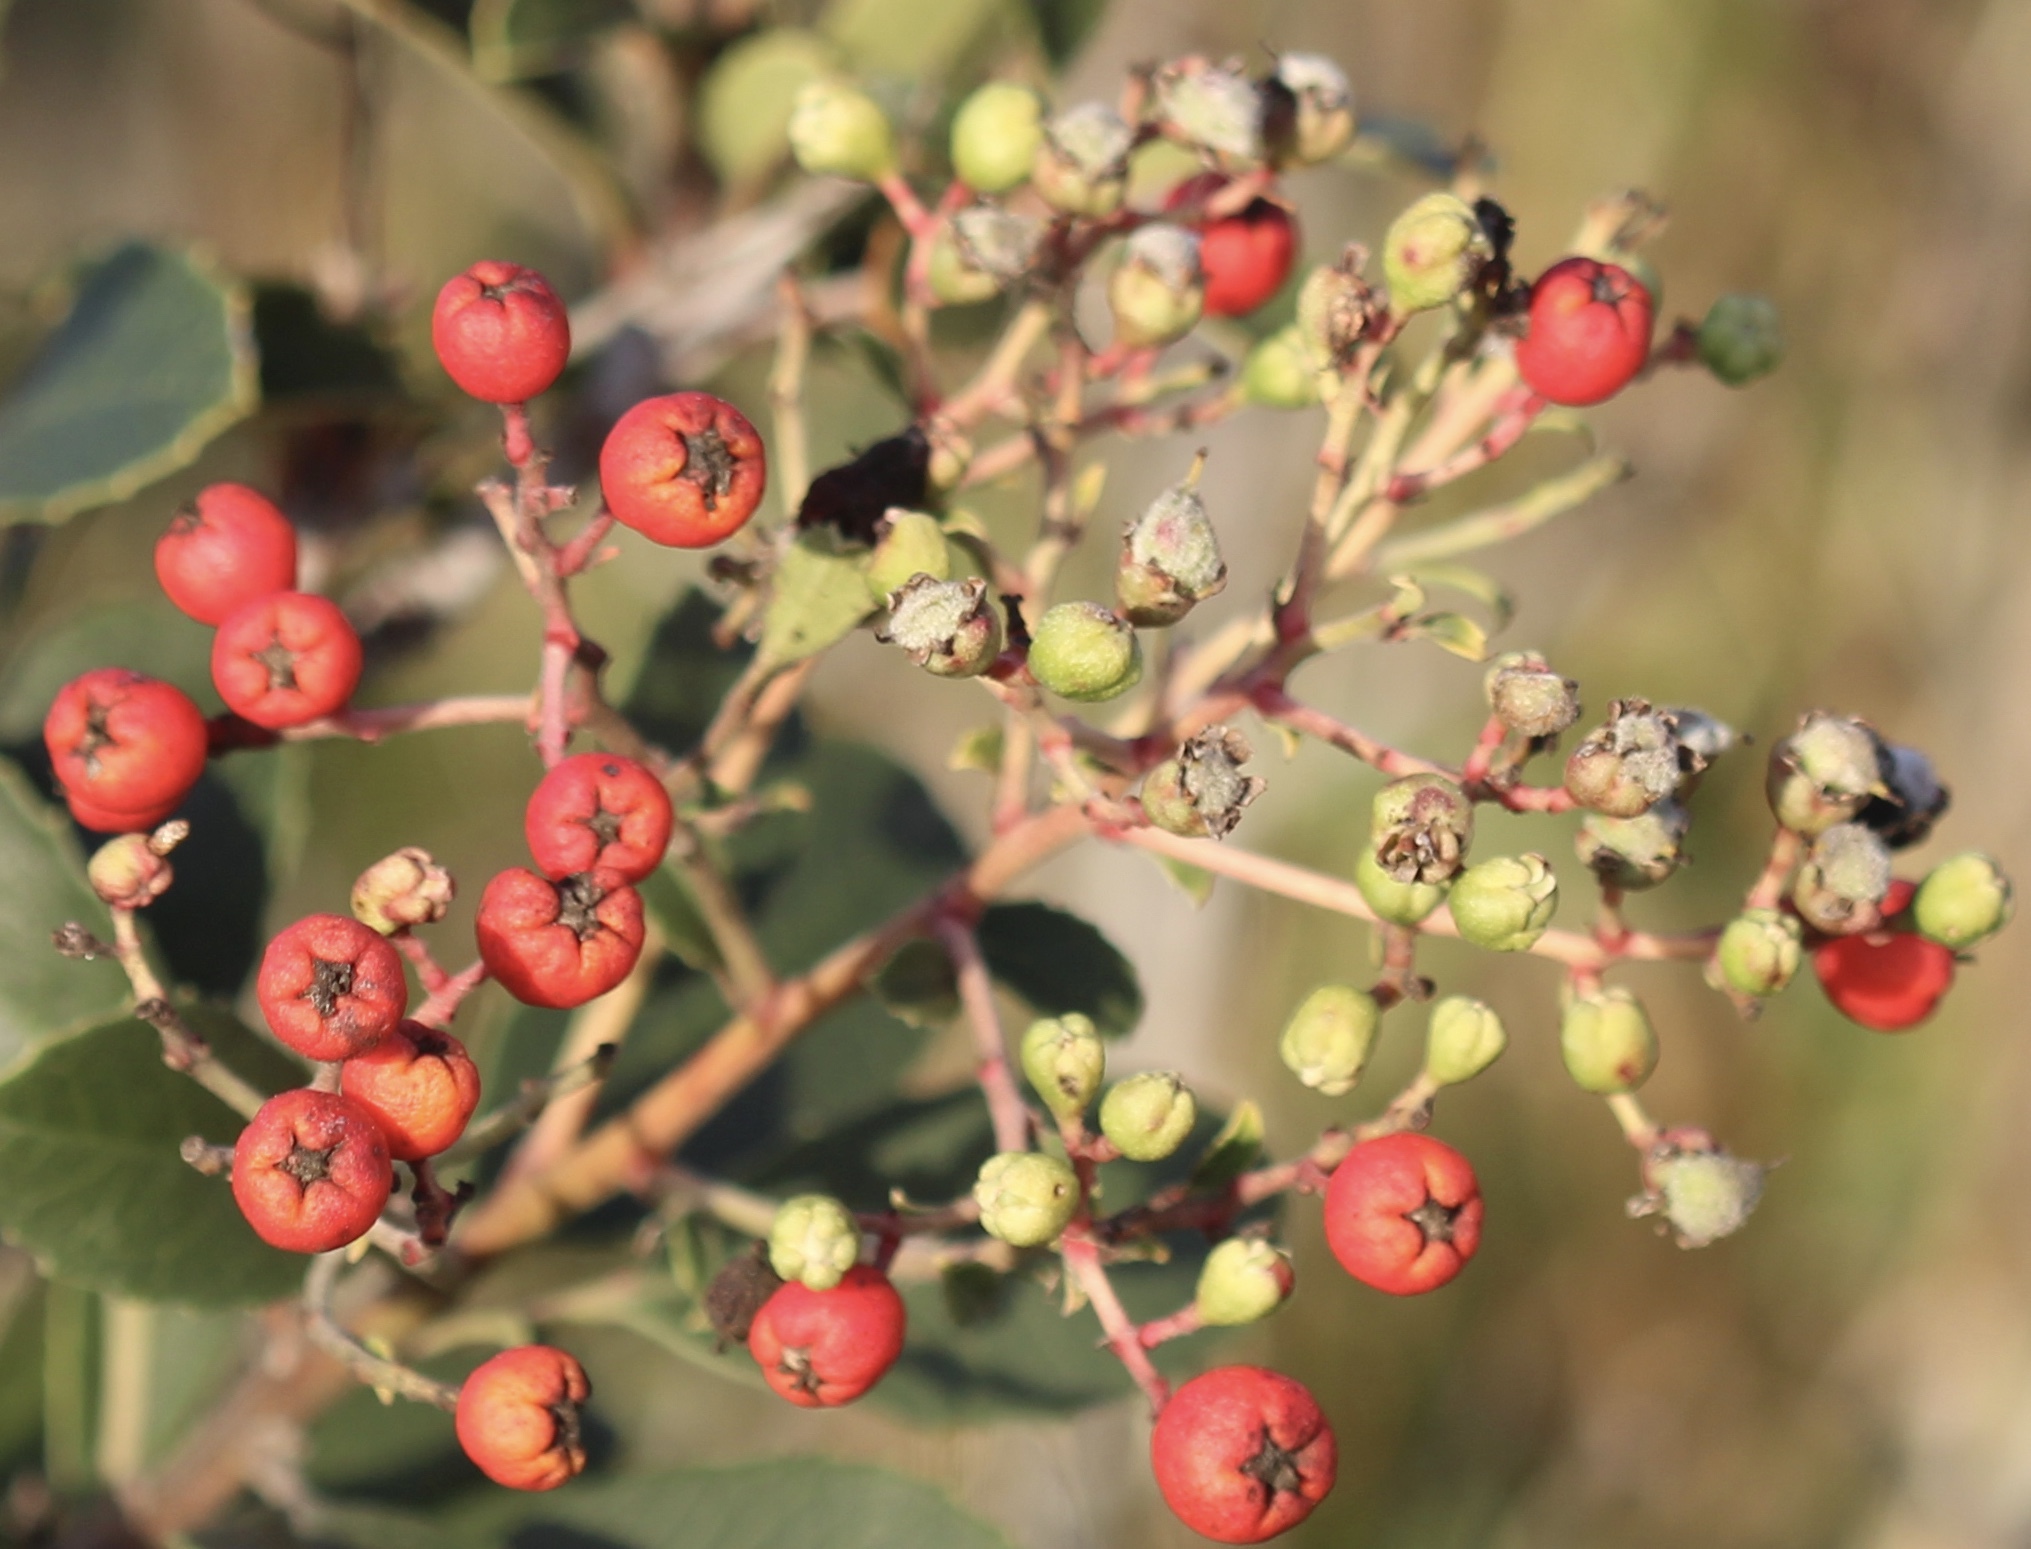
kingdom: Plantae
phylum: Tracheophyta
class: Magnoliopsida
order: Rosales
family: Rosaceae
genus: Heteromeles
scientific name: Heteromeles arbutifolia
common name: California-holly
